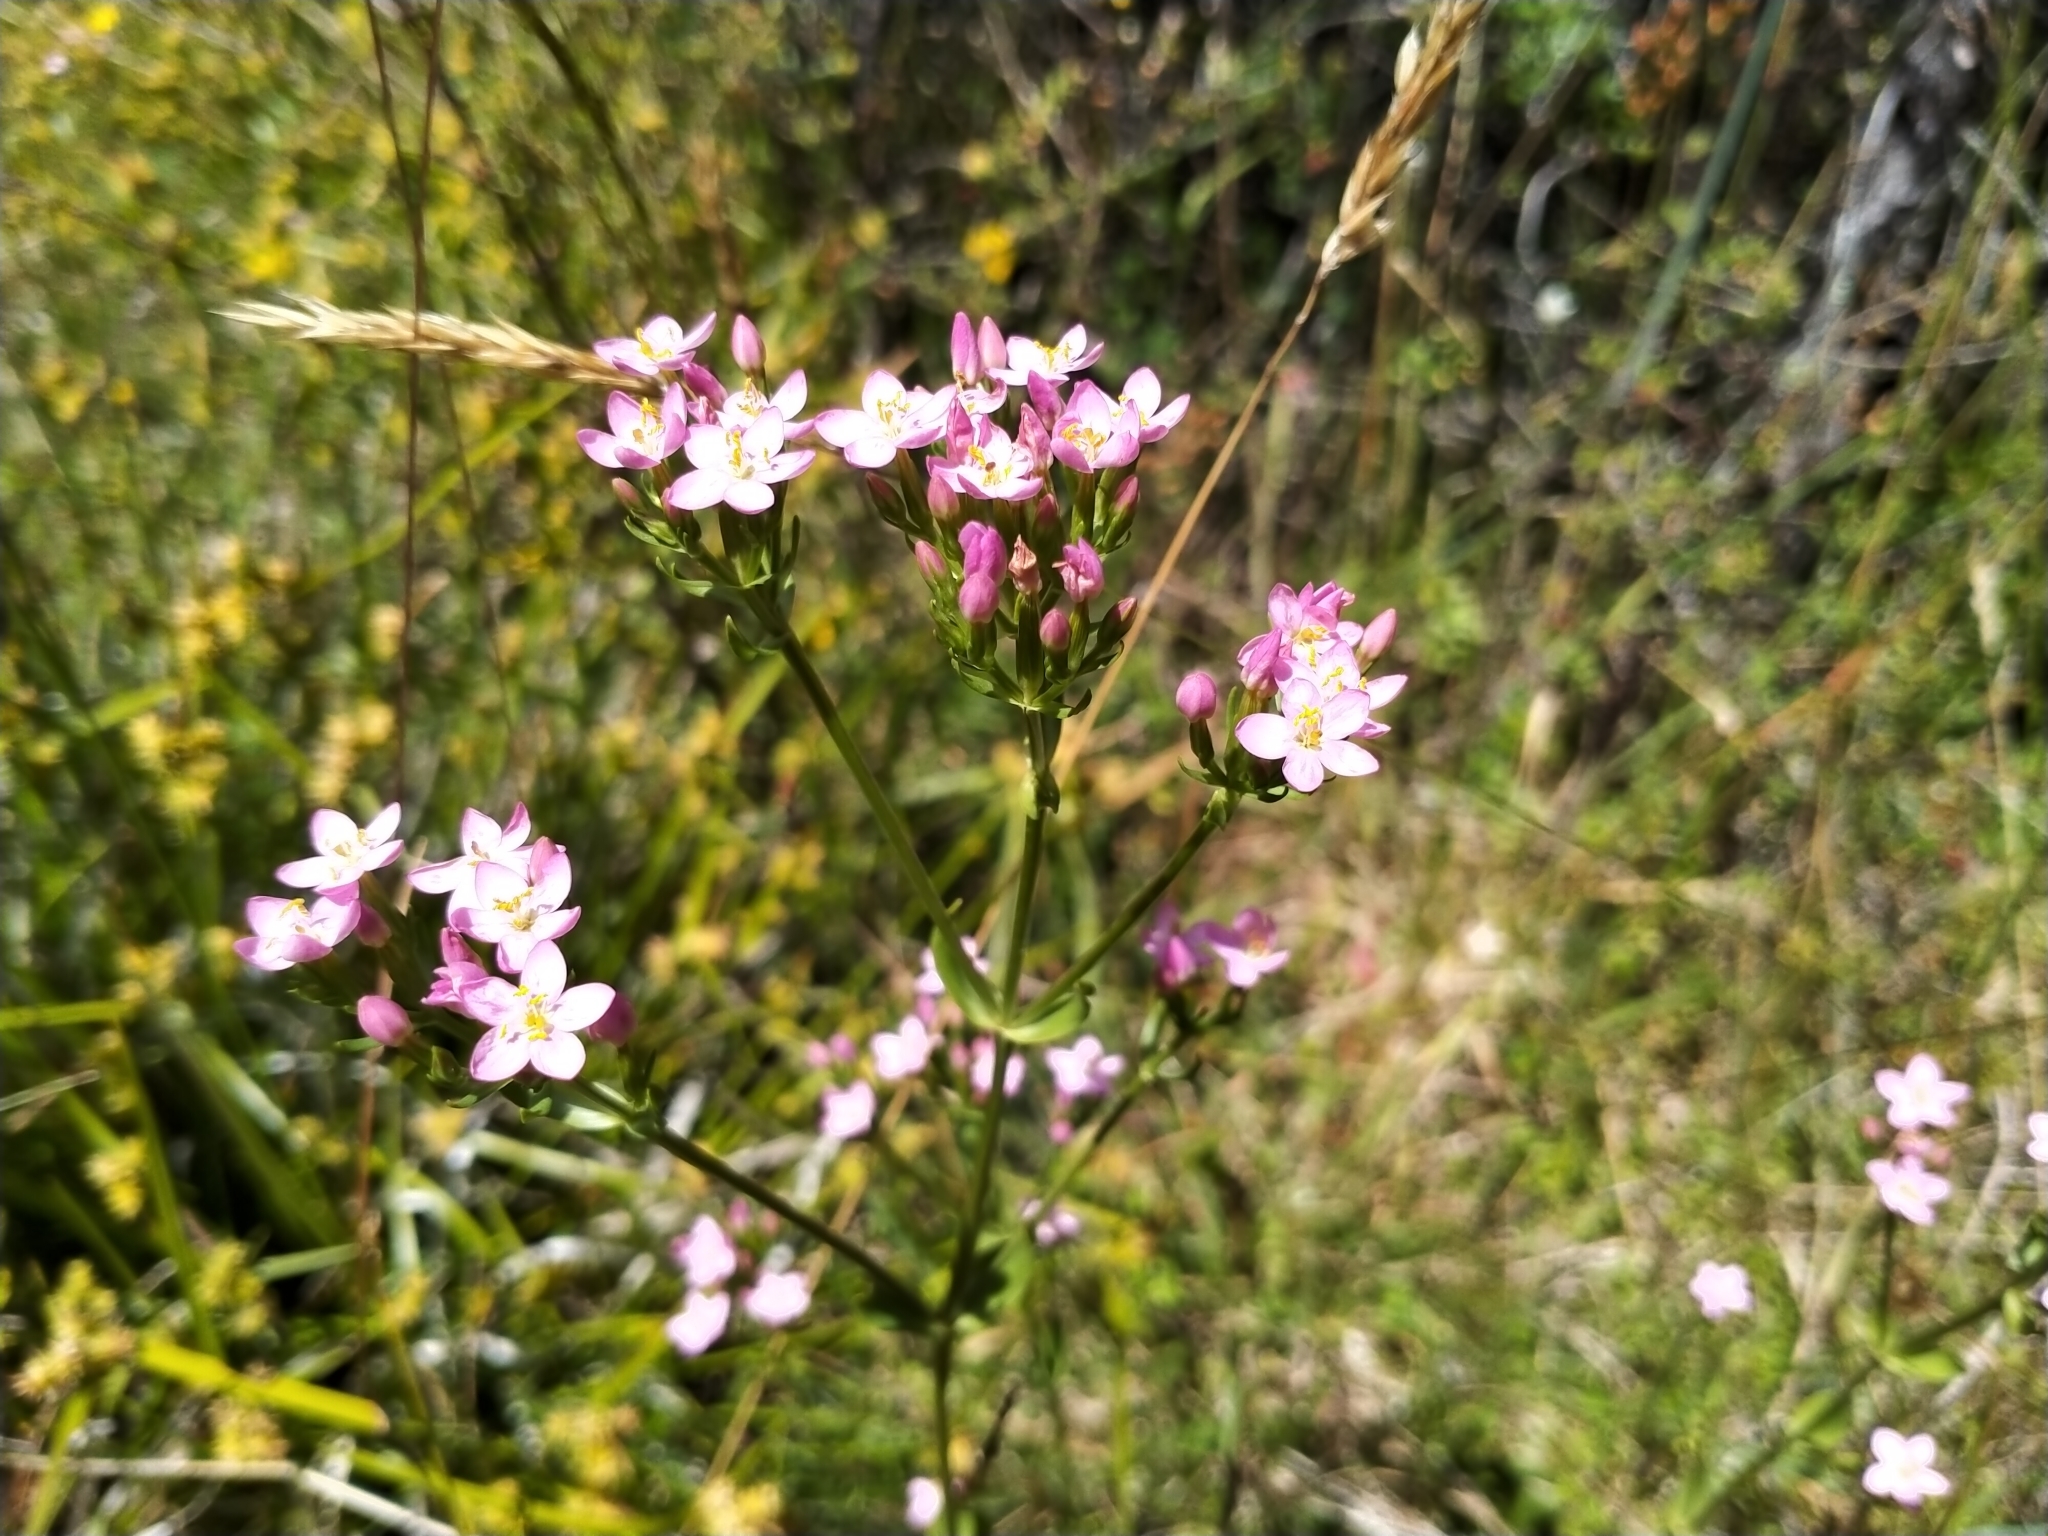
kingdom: Plantae
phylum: Tracheophyta
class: Magnoliopsida
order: Gentianales
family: Gentianaceae
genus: Centaurium
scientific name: Centaurium erythraea
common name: Common centaury
